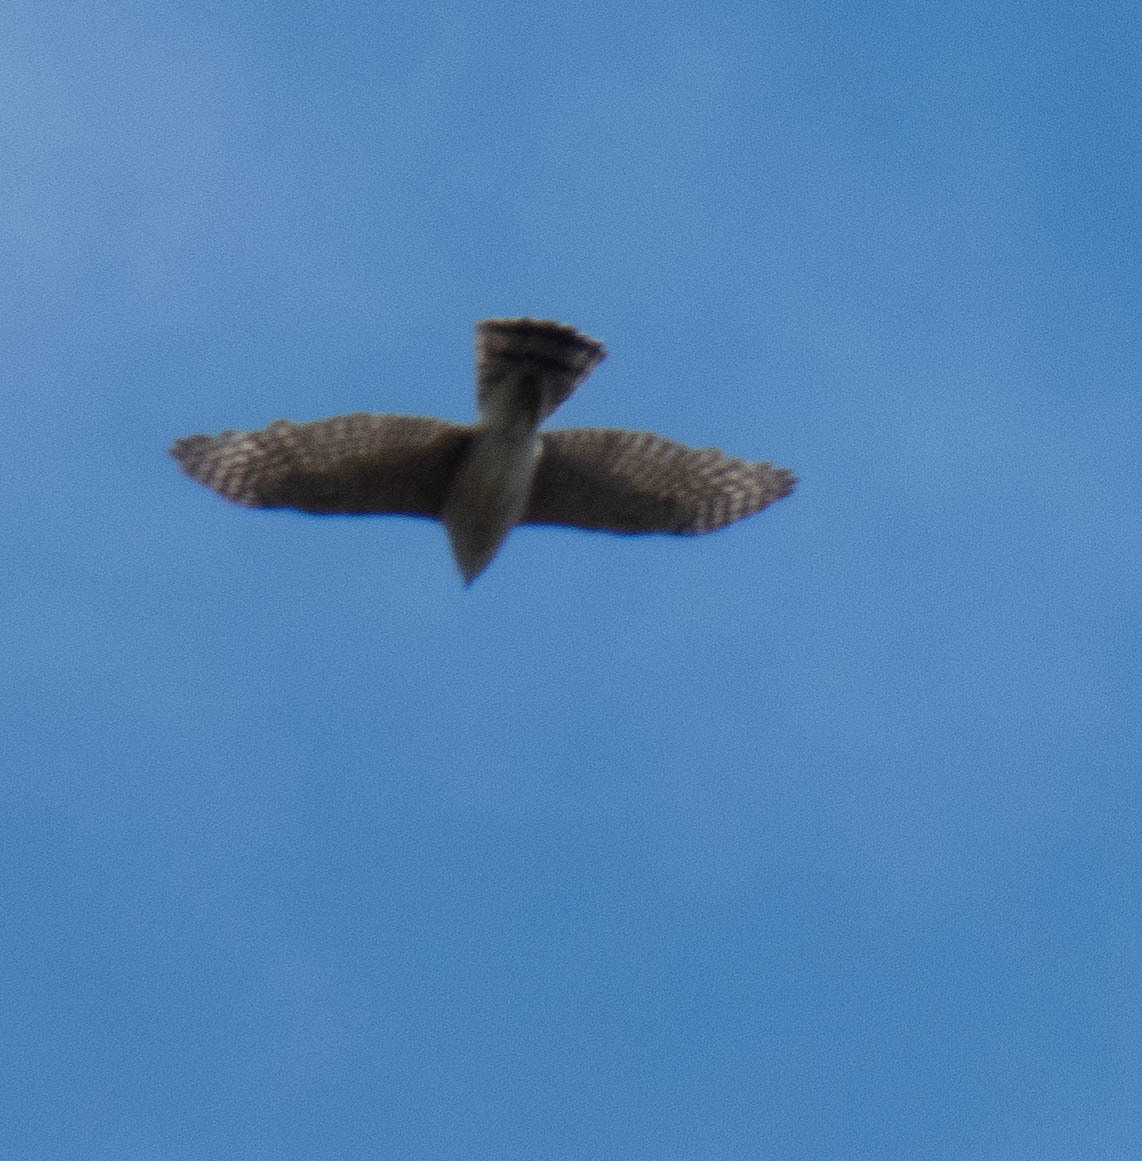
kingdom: Animalia
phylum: Chordata
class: Aves
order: Accipitriformes
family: Accipitridae
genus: Accipiter
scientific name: Accipiter cooperii
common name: Cooper's hawk
